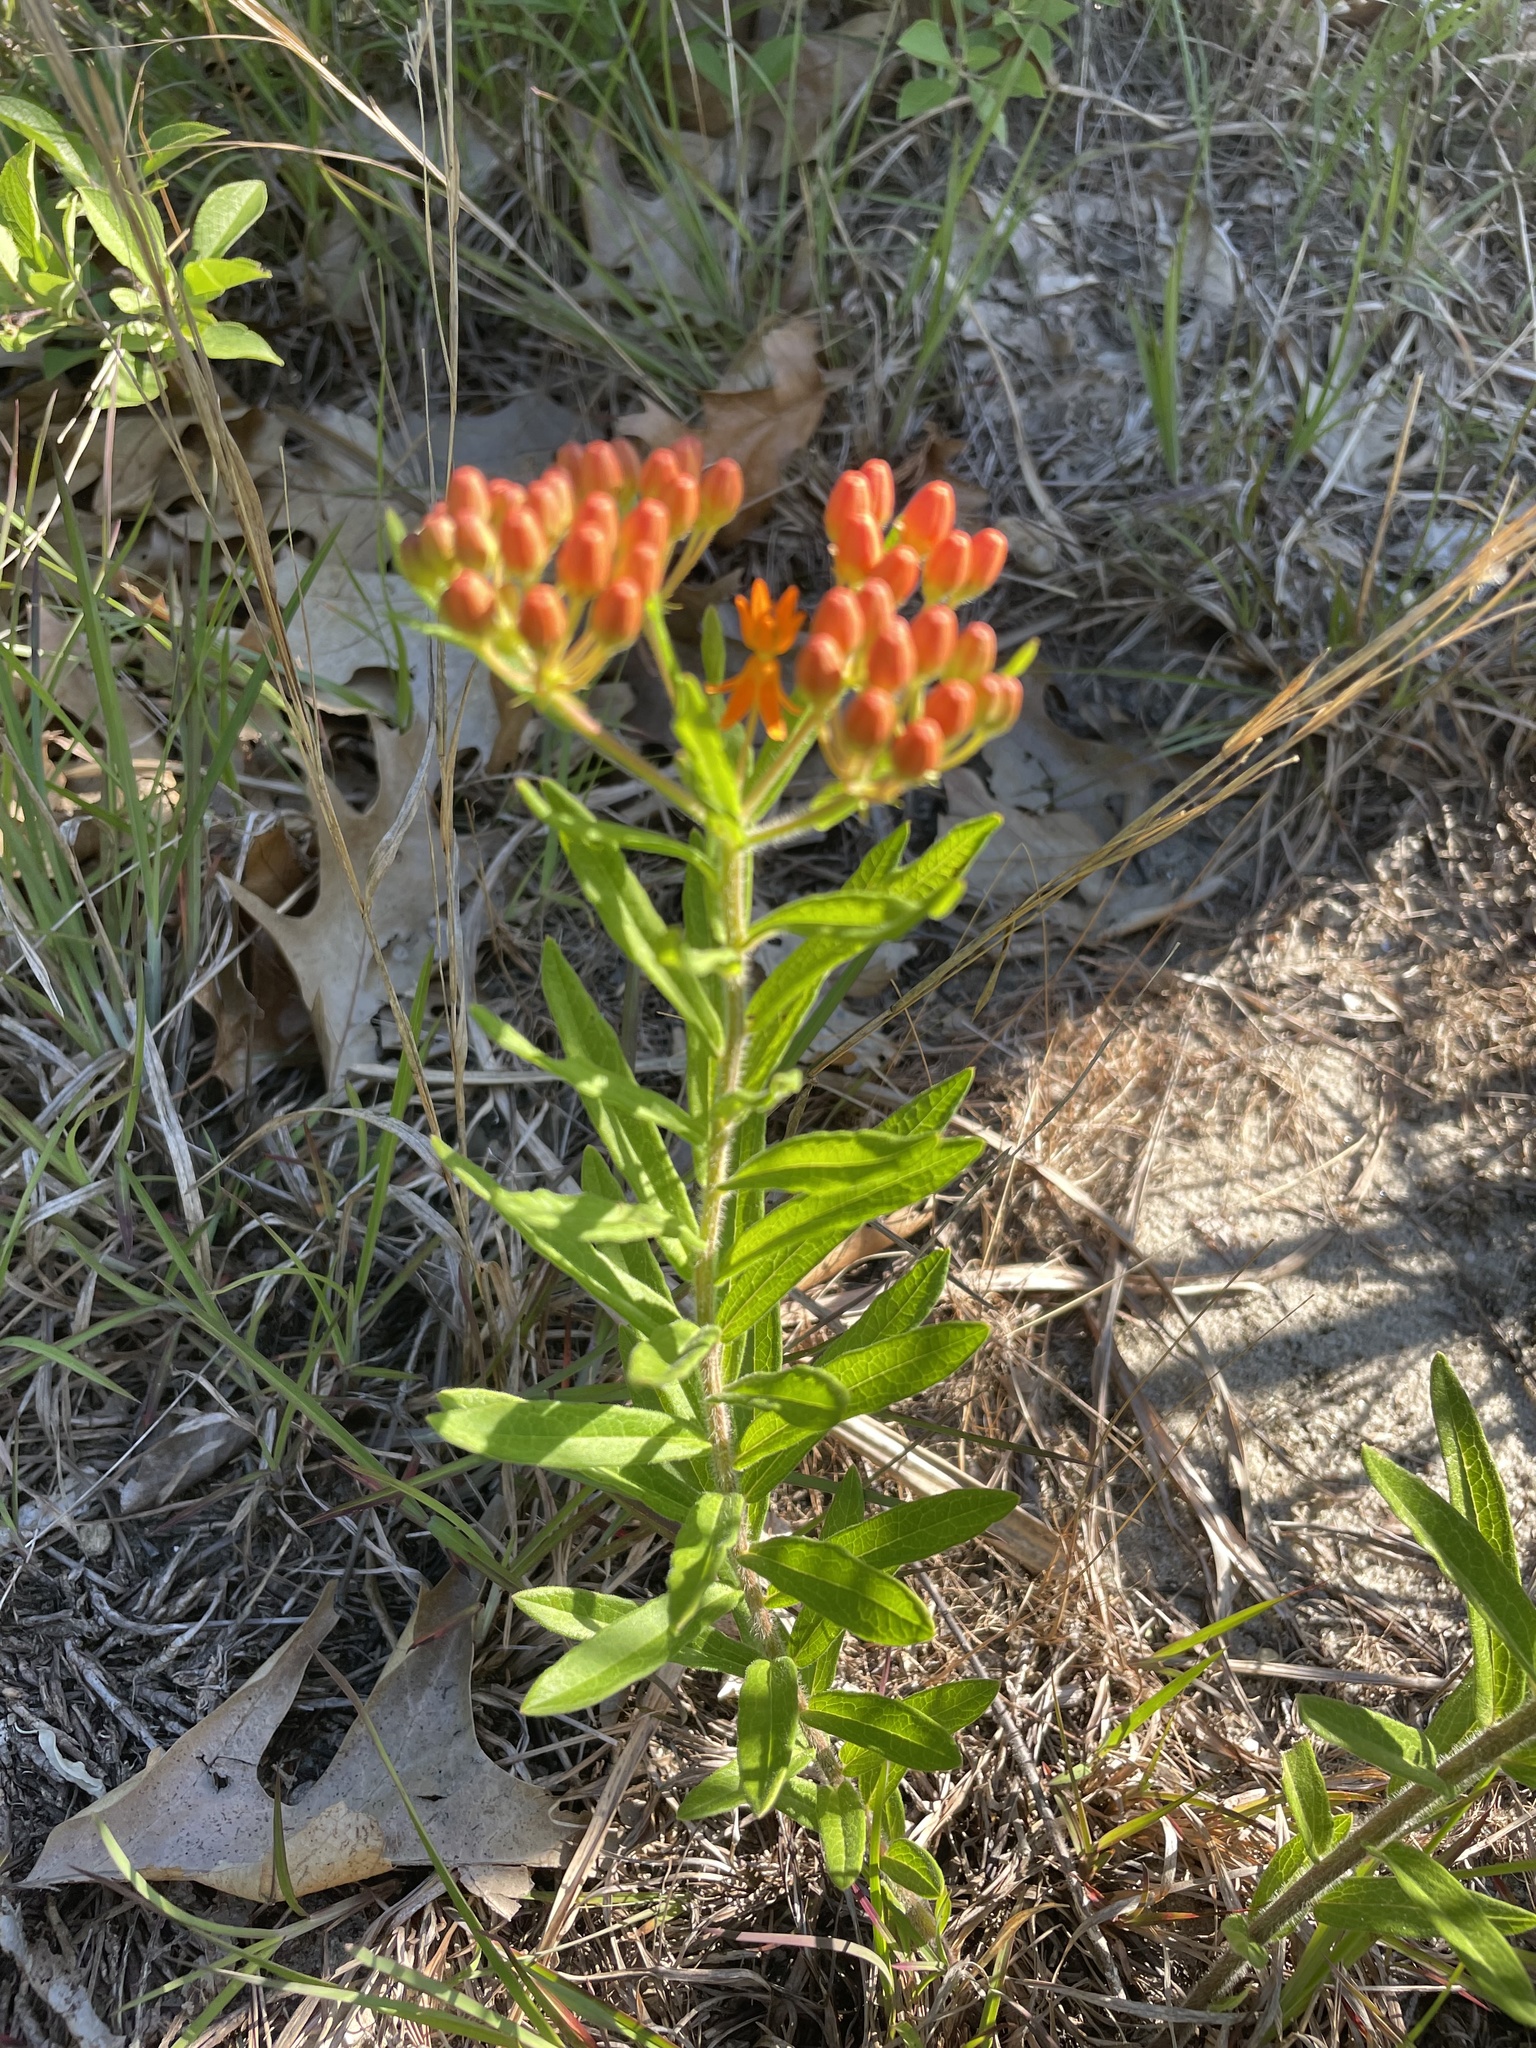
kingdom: Plantae
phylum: Tracheophyta
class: Magnoliopsida
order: Gentianales
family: Apocynaceae
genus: Asclepias
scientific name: Asclepias tuberosa
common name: Butterfly milkweed
